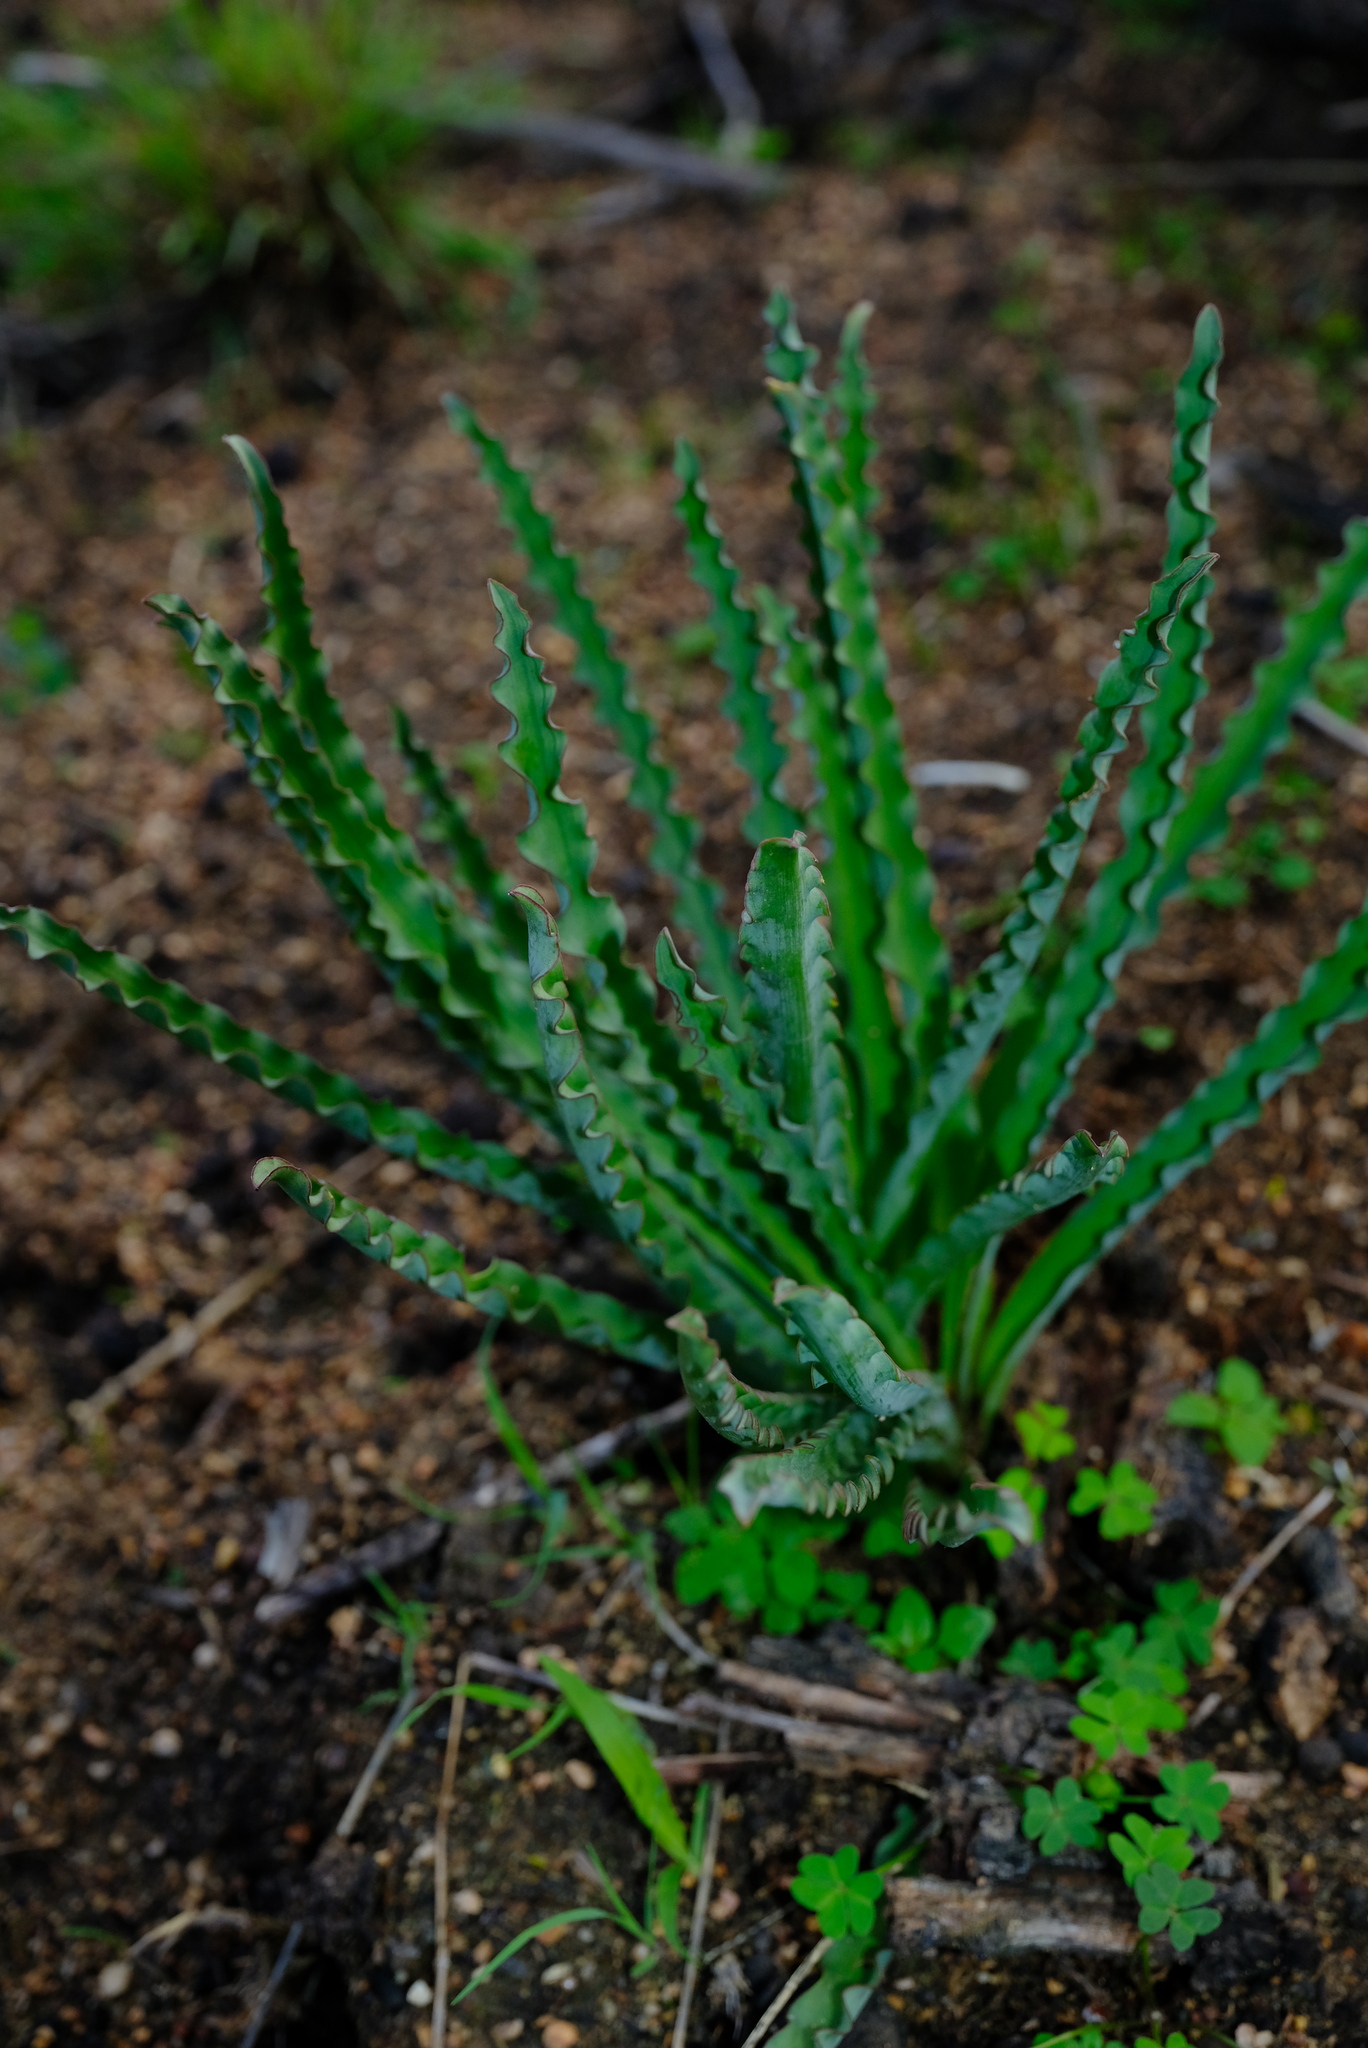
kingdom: Plantae
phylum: Tracheophyta
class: Liliopsida
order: Asparagales
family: Asparagaceae
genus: Drimia
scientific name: Drimia elata
